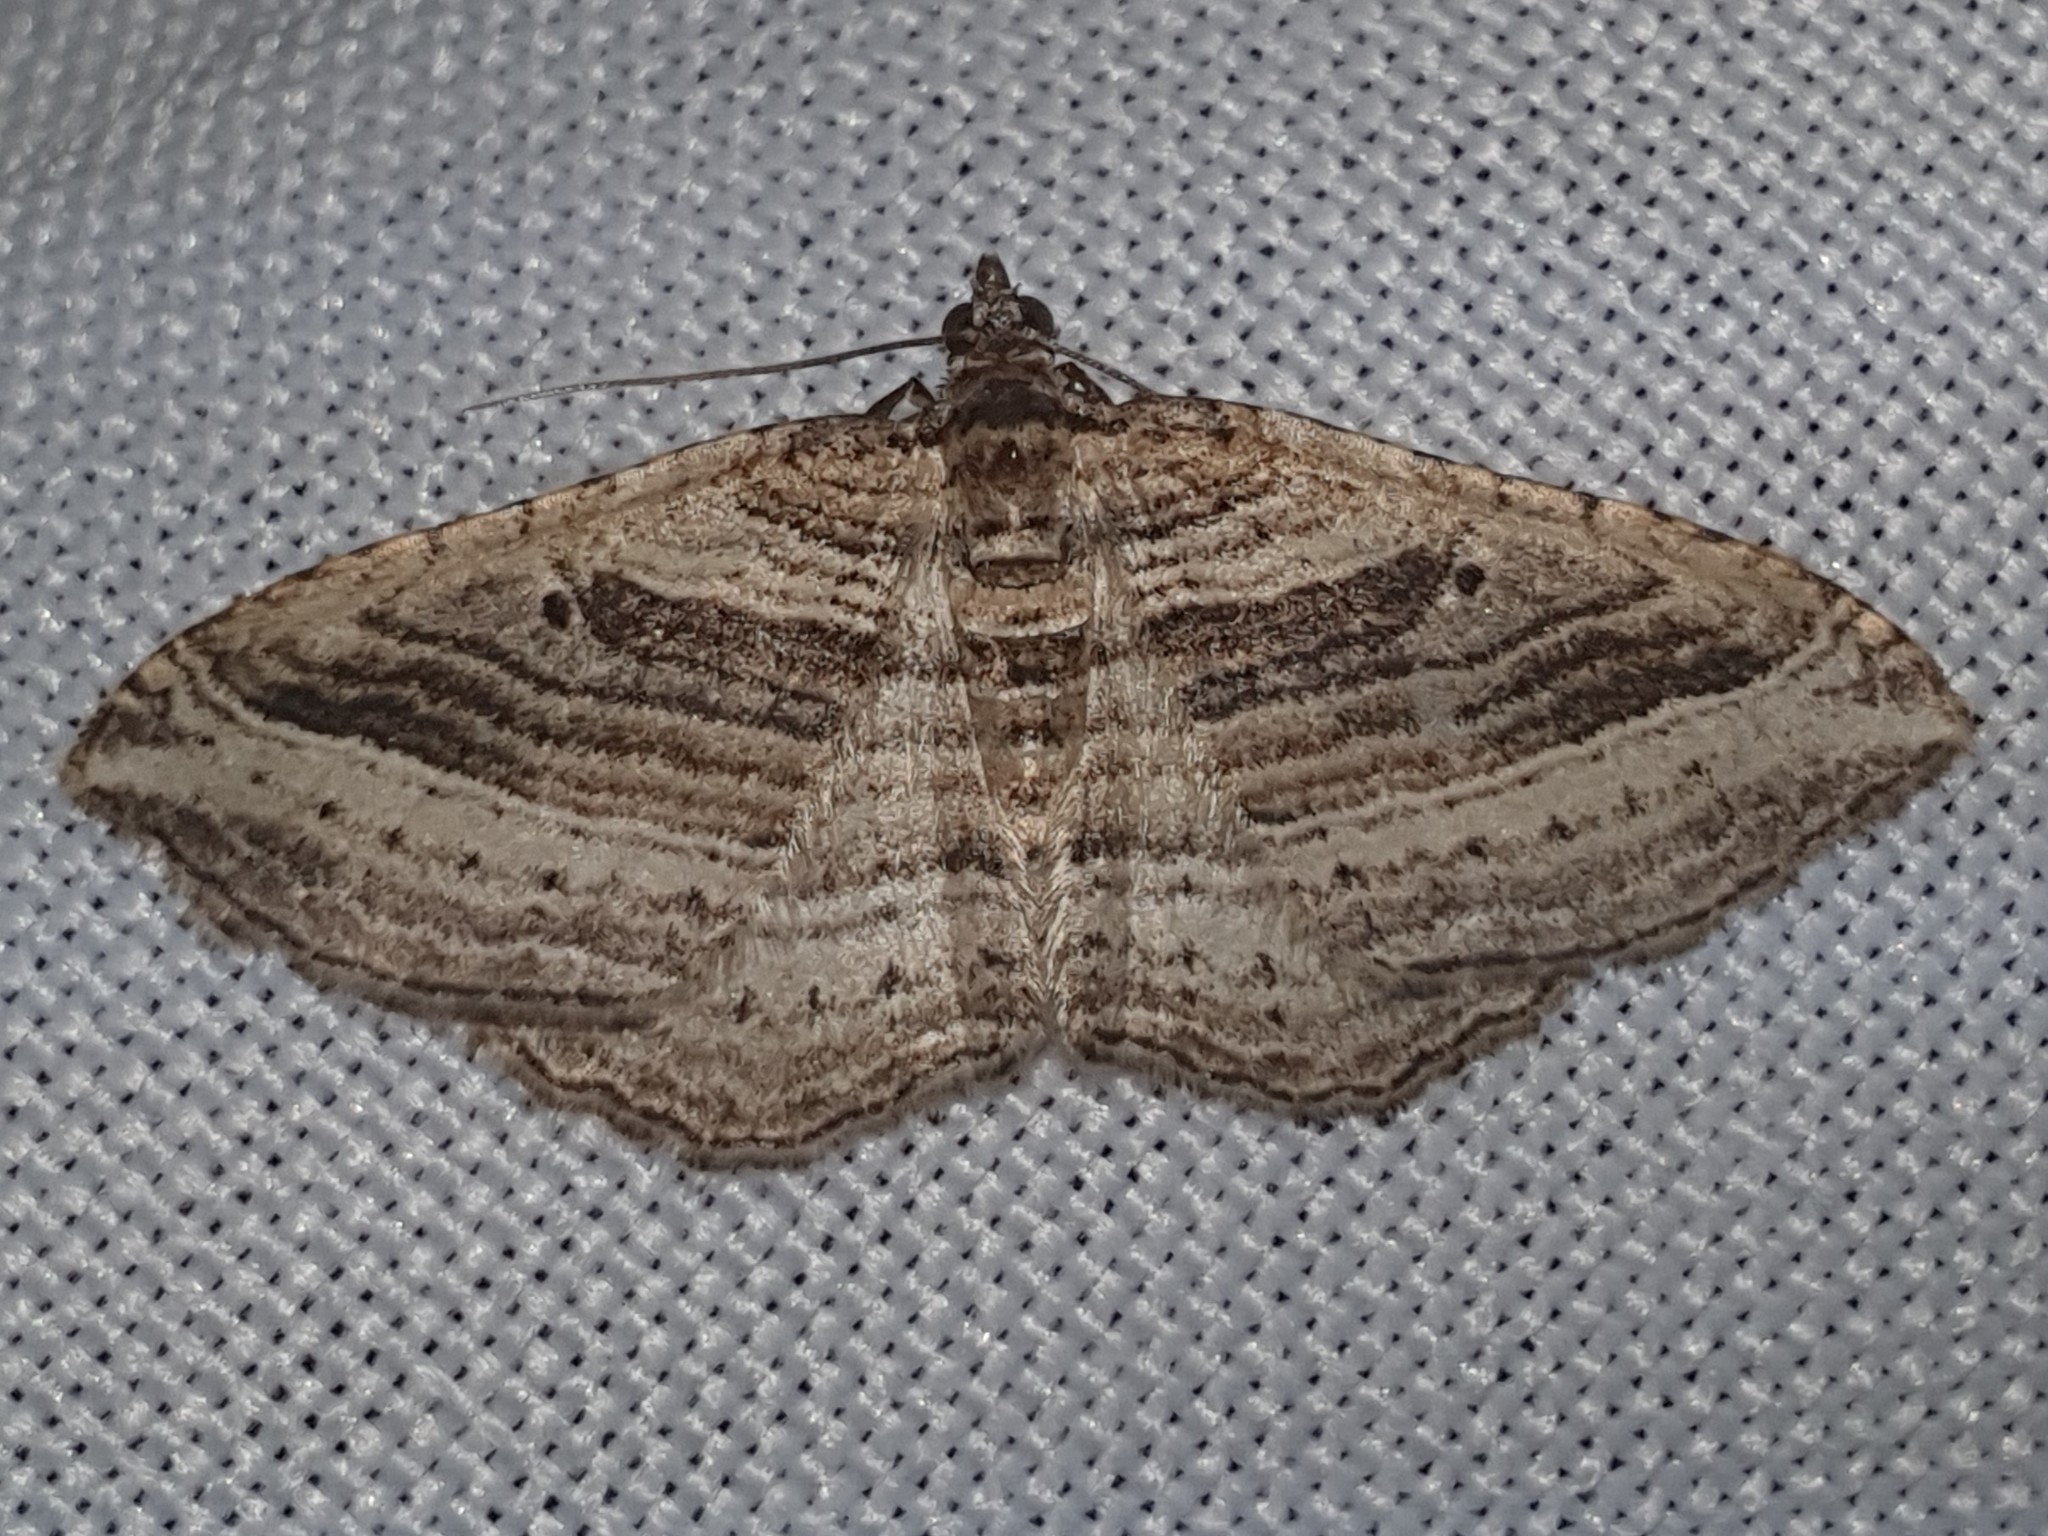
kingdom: Animalia
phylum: Arthropoda
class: Insecta
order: Lepidoptera
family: Geometridae
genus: Costaconvexa
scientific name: Costaconvexa polygrammata
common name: Many-lined
